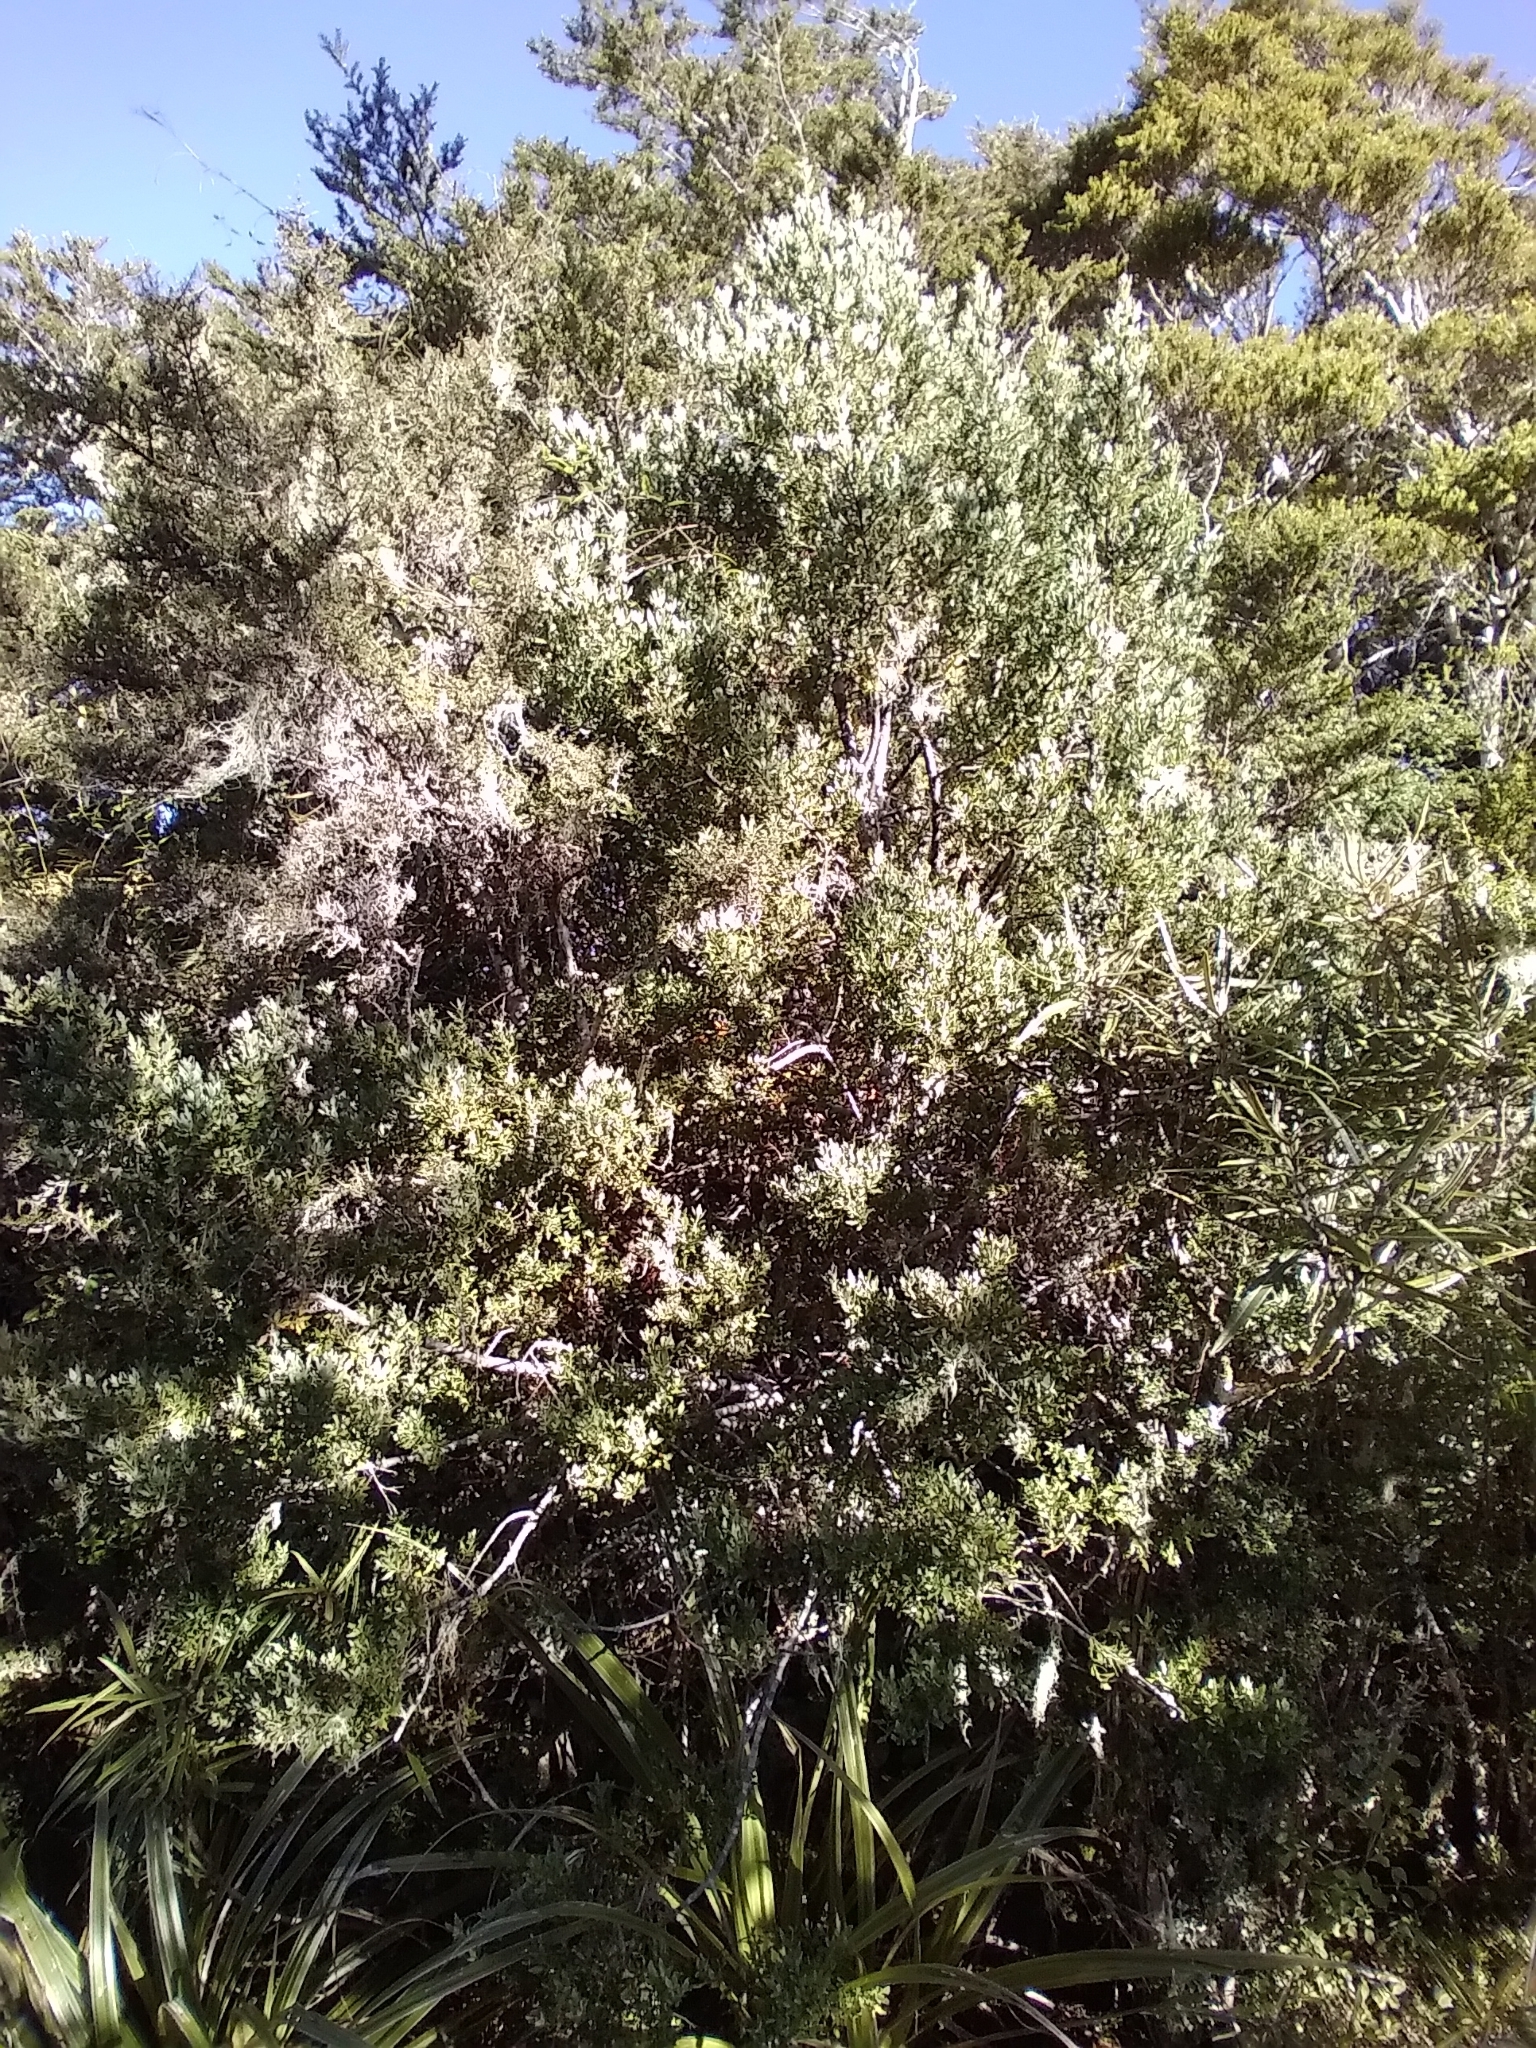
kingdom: Plantae
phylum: Tracheophyta
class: Pinopsida
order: Pinales
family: Phyllocladaceae
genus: Phyllocladus
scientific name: Phyllocladus trichomanoides
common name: Celery pine
